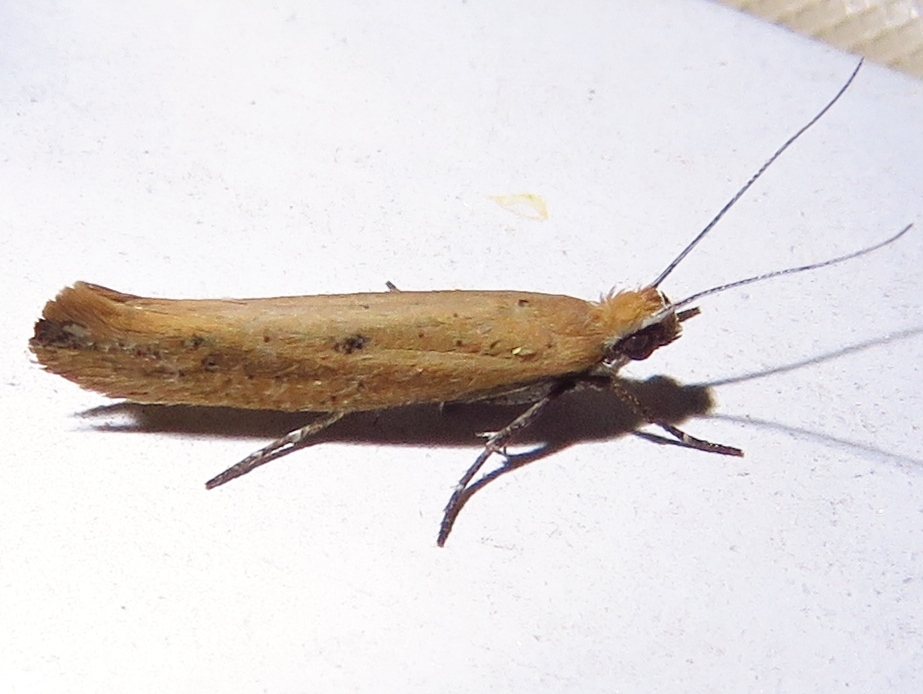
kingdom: Animalia
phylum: Arthropoda
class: Insecta
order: Lepidoptera
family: Ypsolophidae
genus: Ypsolopha
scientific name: Ypsolopha unicipunctella
